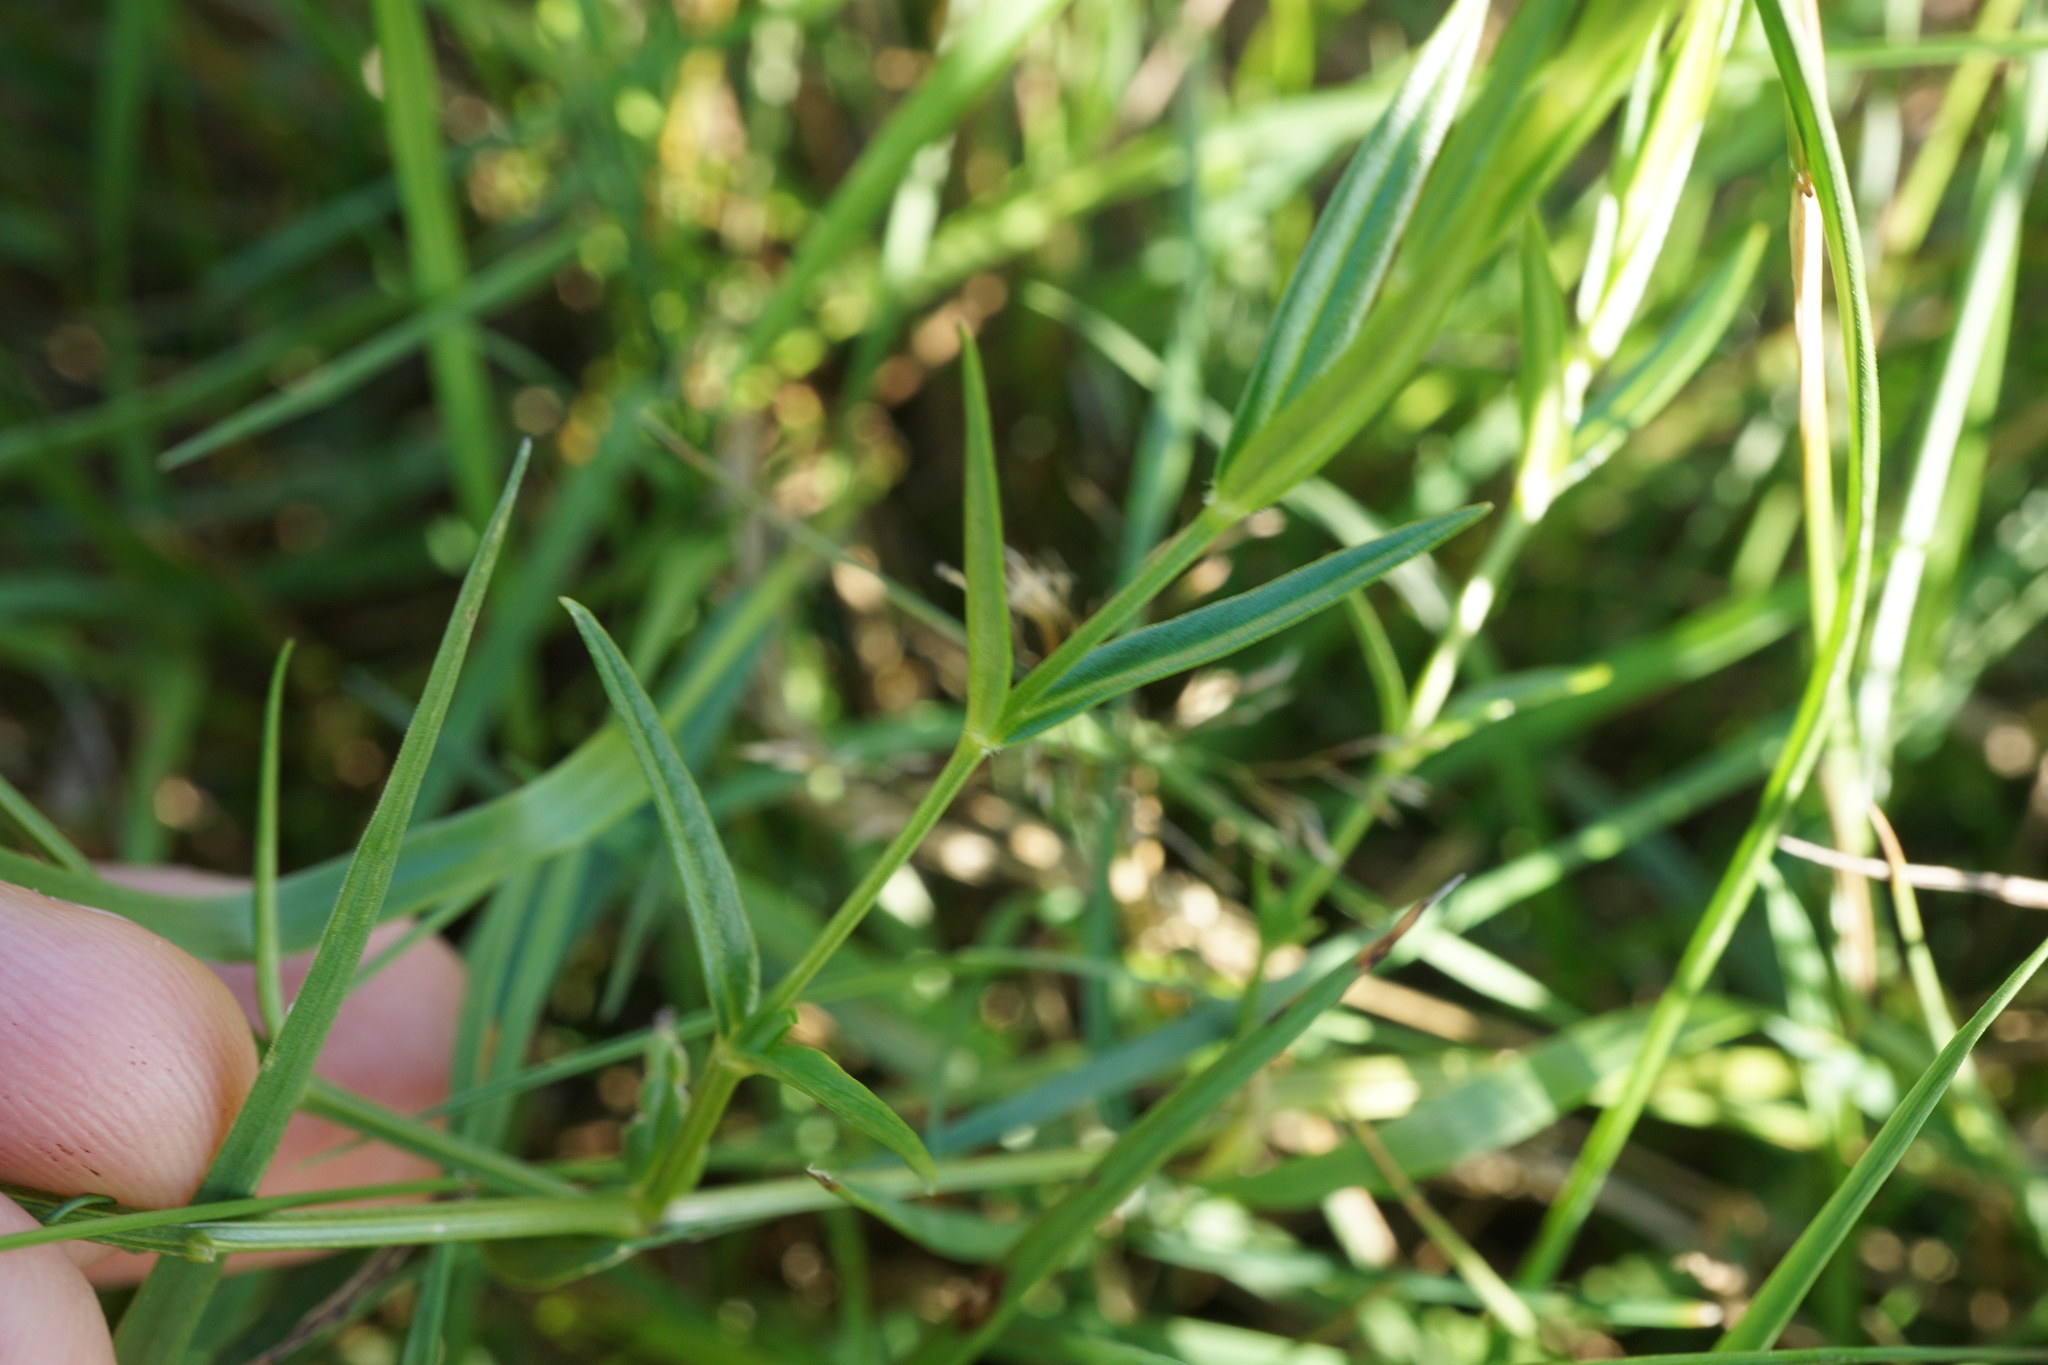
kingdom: Plantae
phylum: Tracheophyta
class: Magnoliopsida
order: Caryophyllales
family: Caryophyllaceae
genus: Stellaria
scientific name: Stellaria graminea
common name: Grass-like starwort
